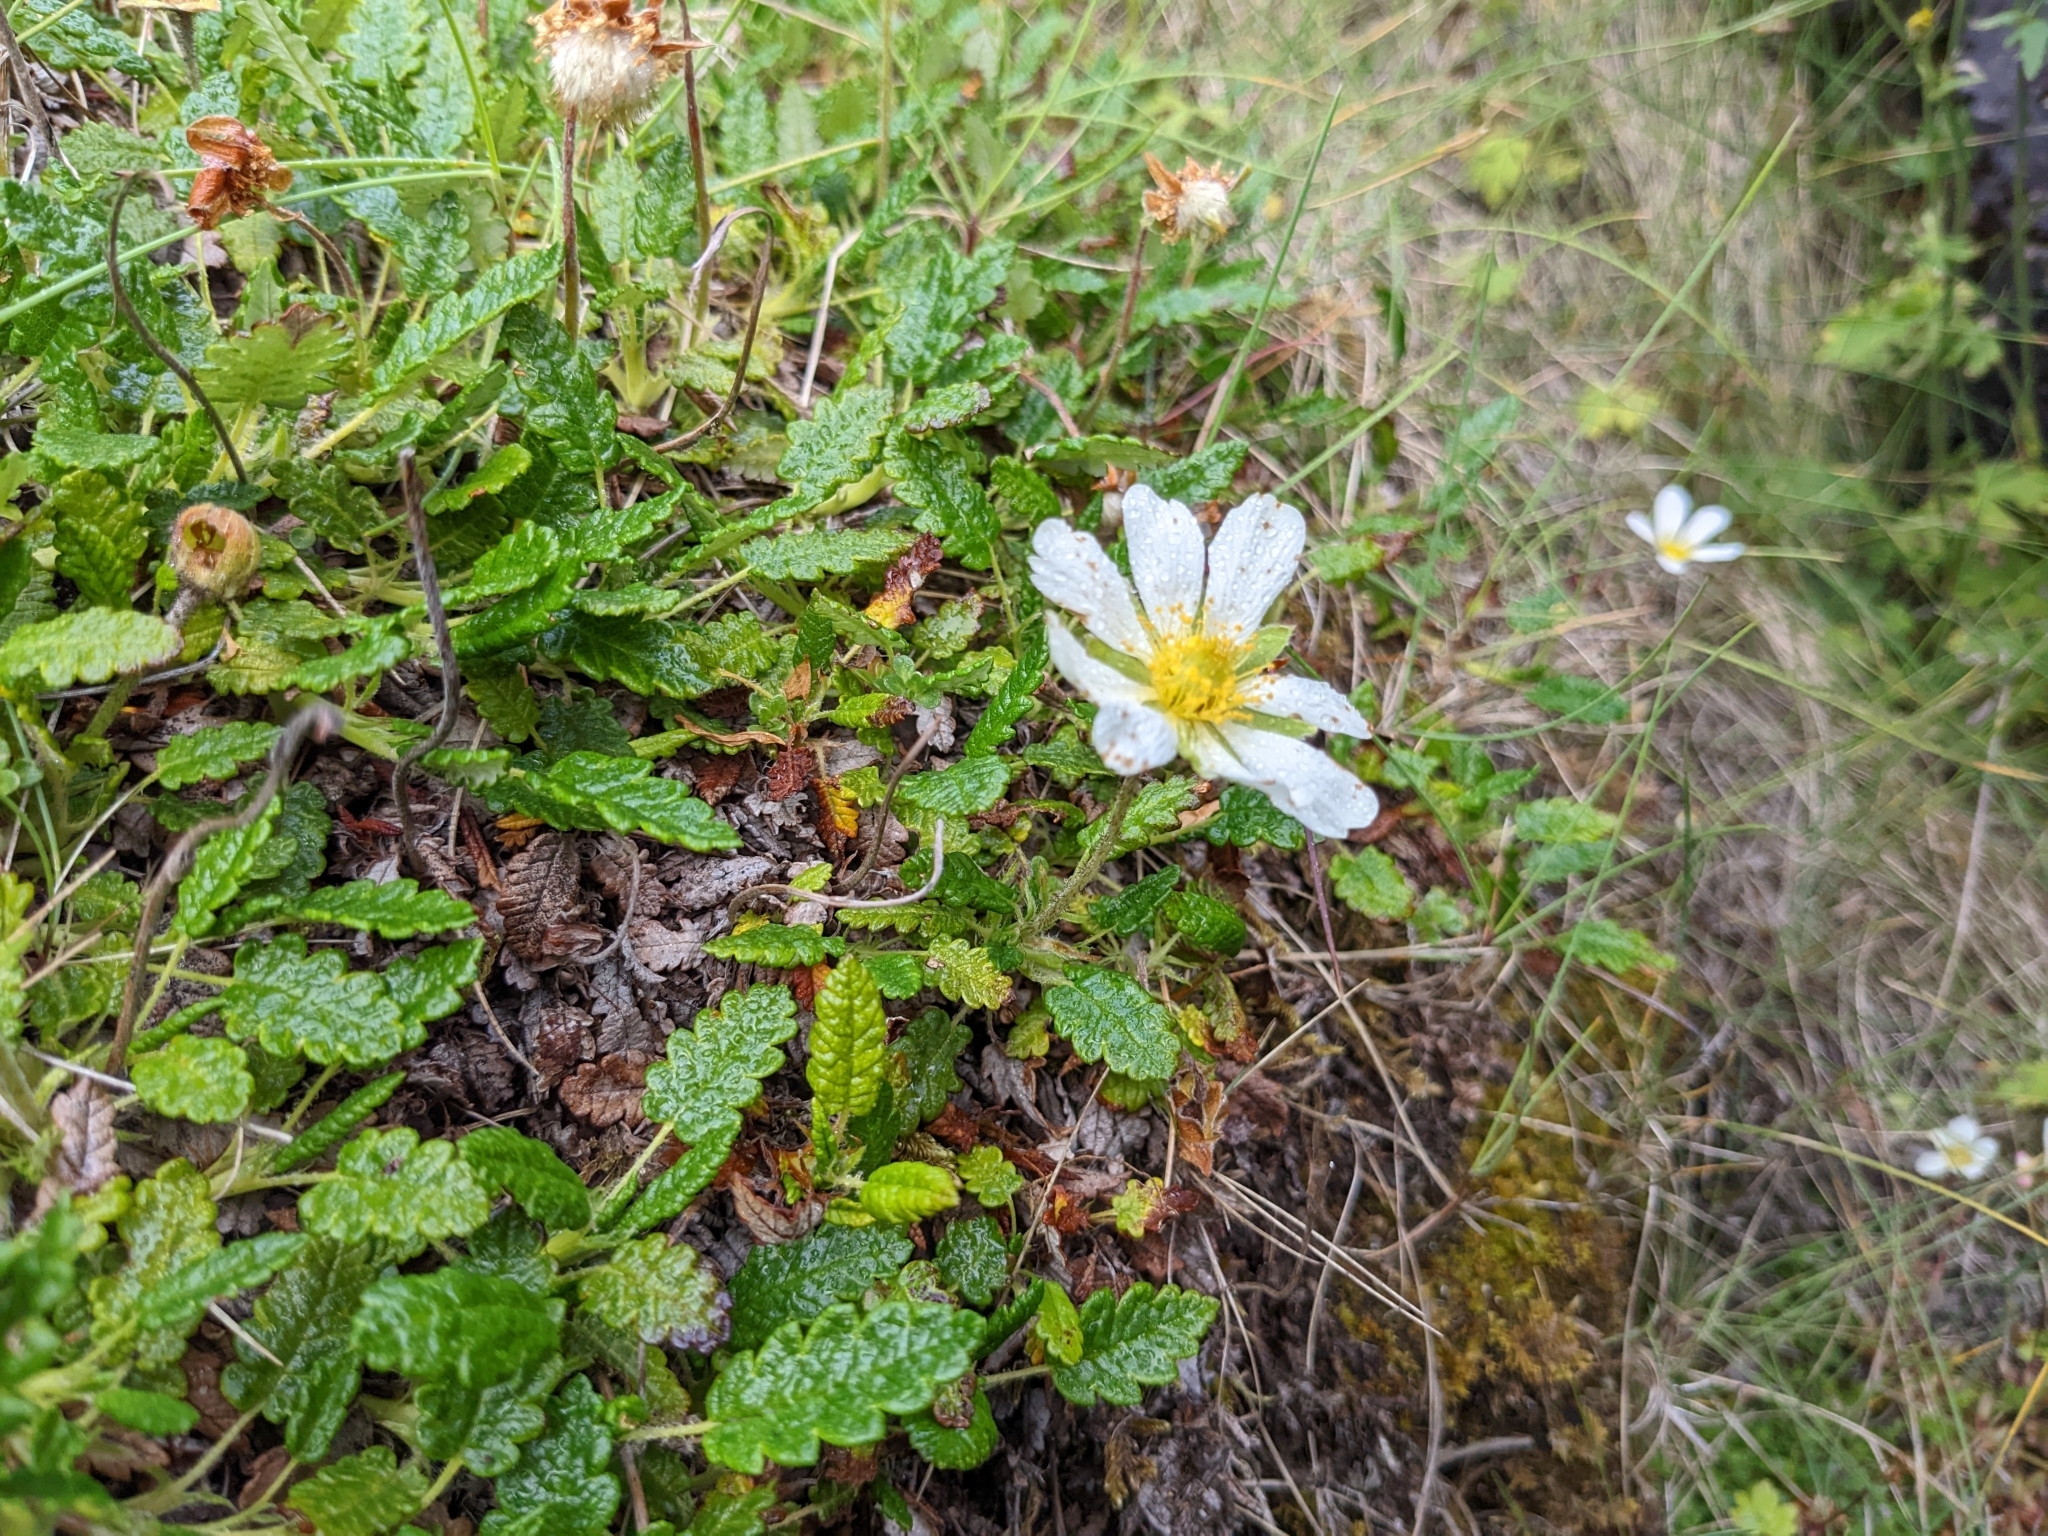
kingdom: Plantae
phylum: Tracheophyta
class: Magnoliopsida
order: Rosales
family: Rosaceae
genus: Dryas
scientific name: Dryas octopetala
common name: Eight-petal mountain-avens
